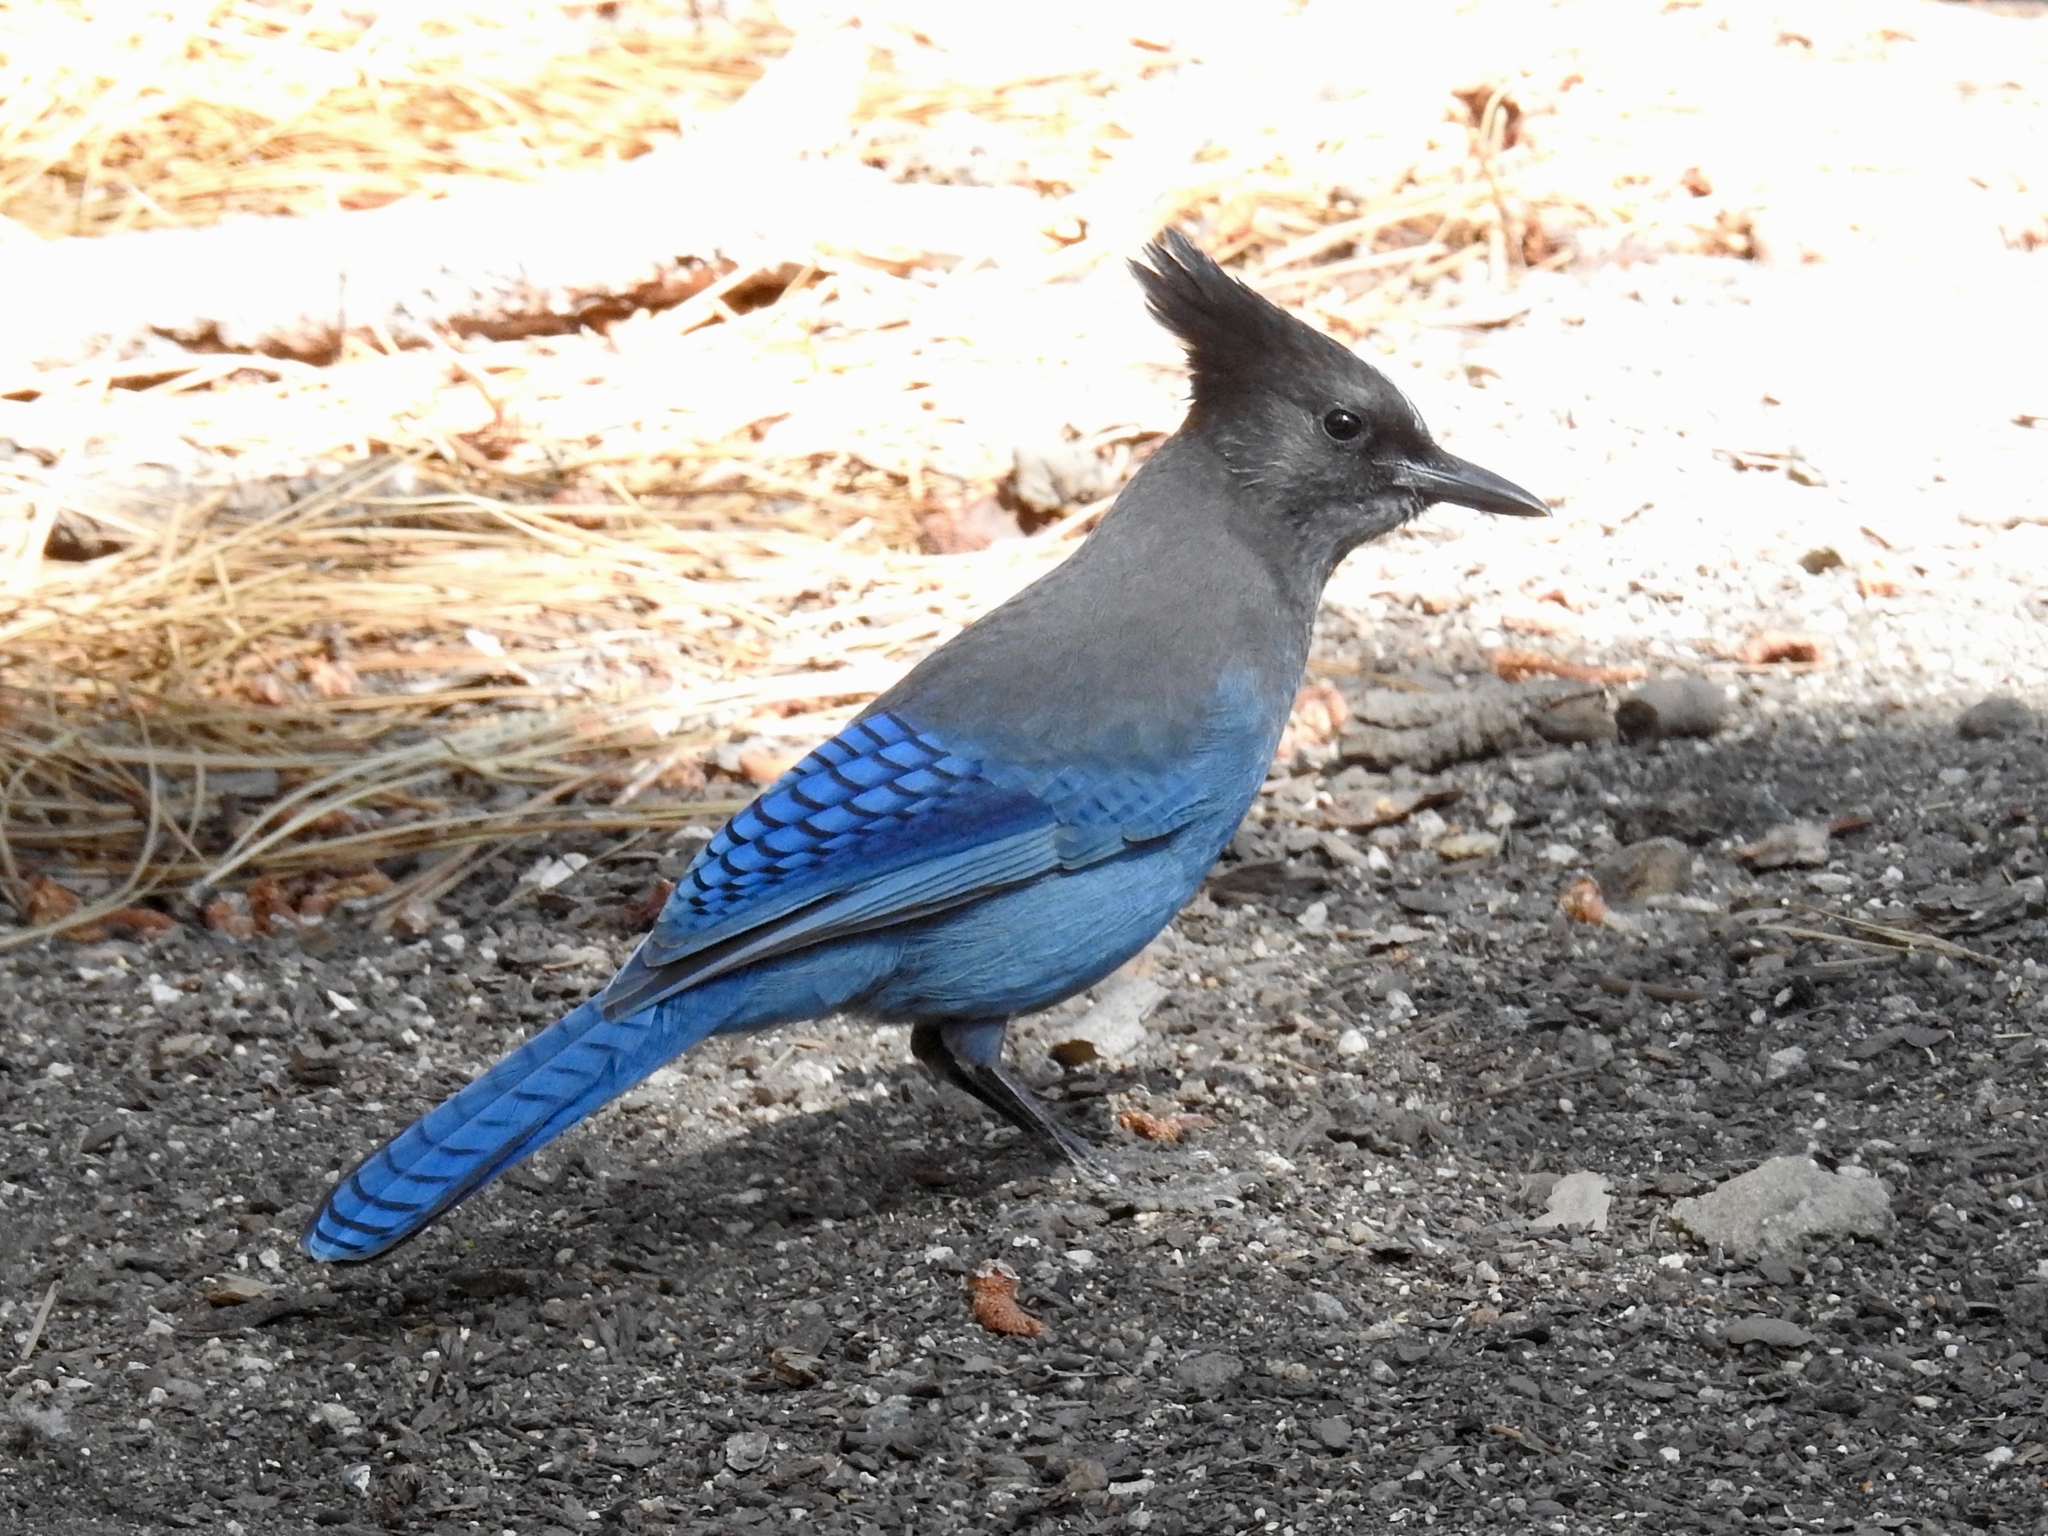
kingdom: Animalia
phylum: Chordata
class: Aves
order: Passeriformes
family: Corvidae
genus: Cyanocitta
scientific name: Cyanocitta stelleri
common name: Steller's jay
